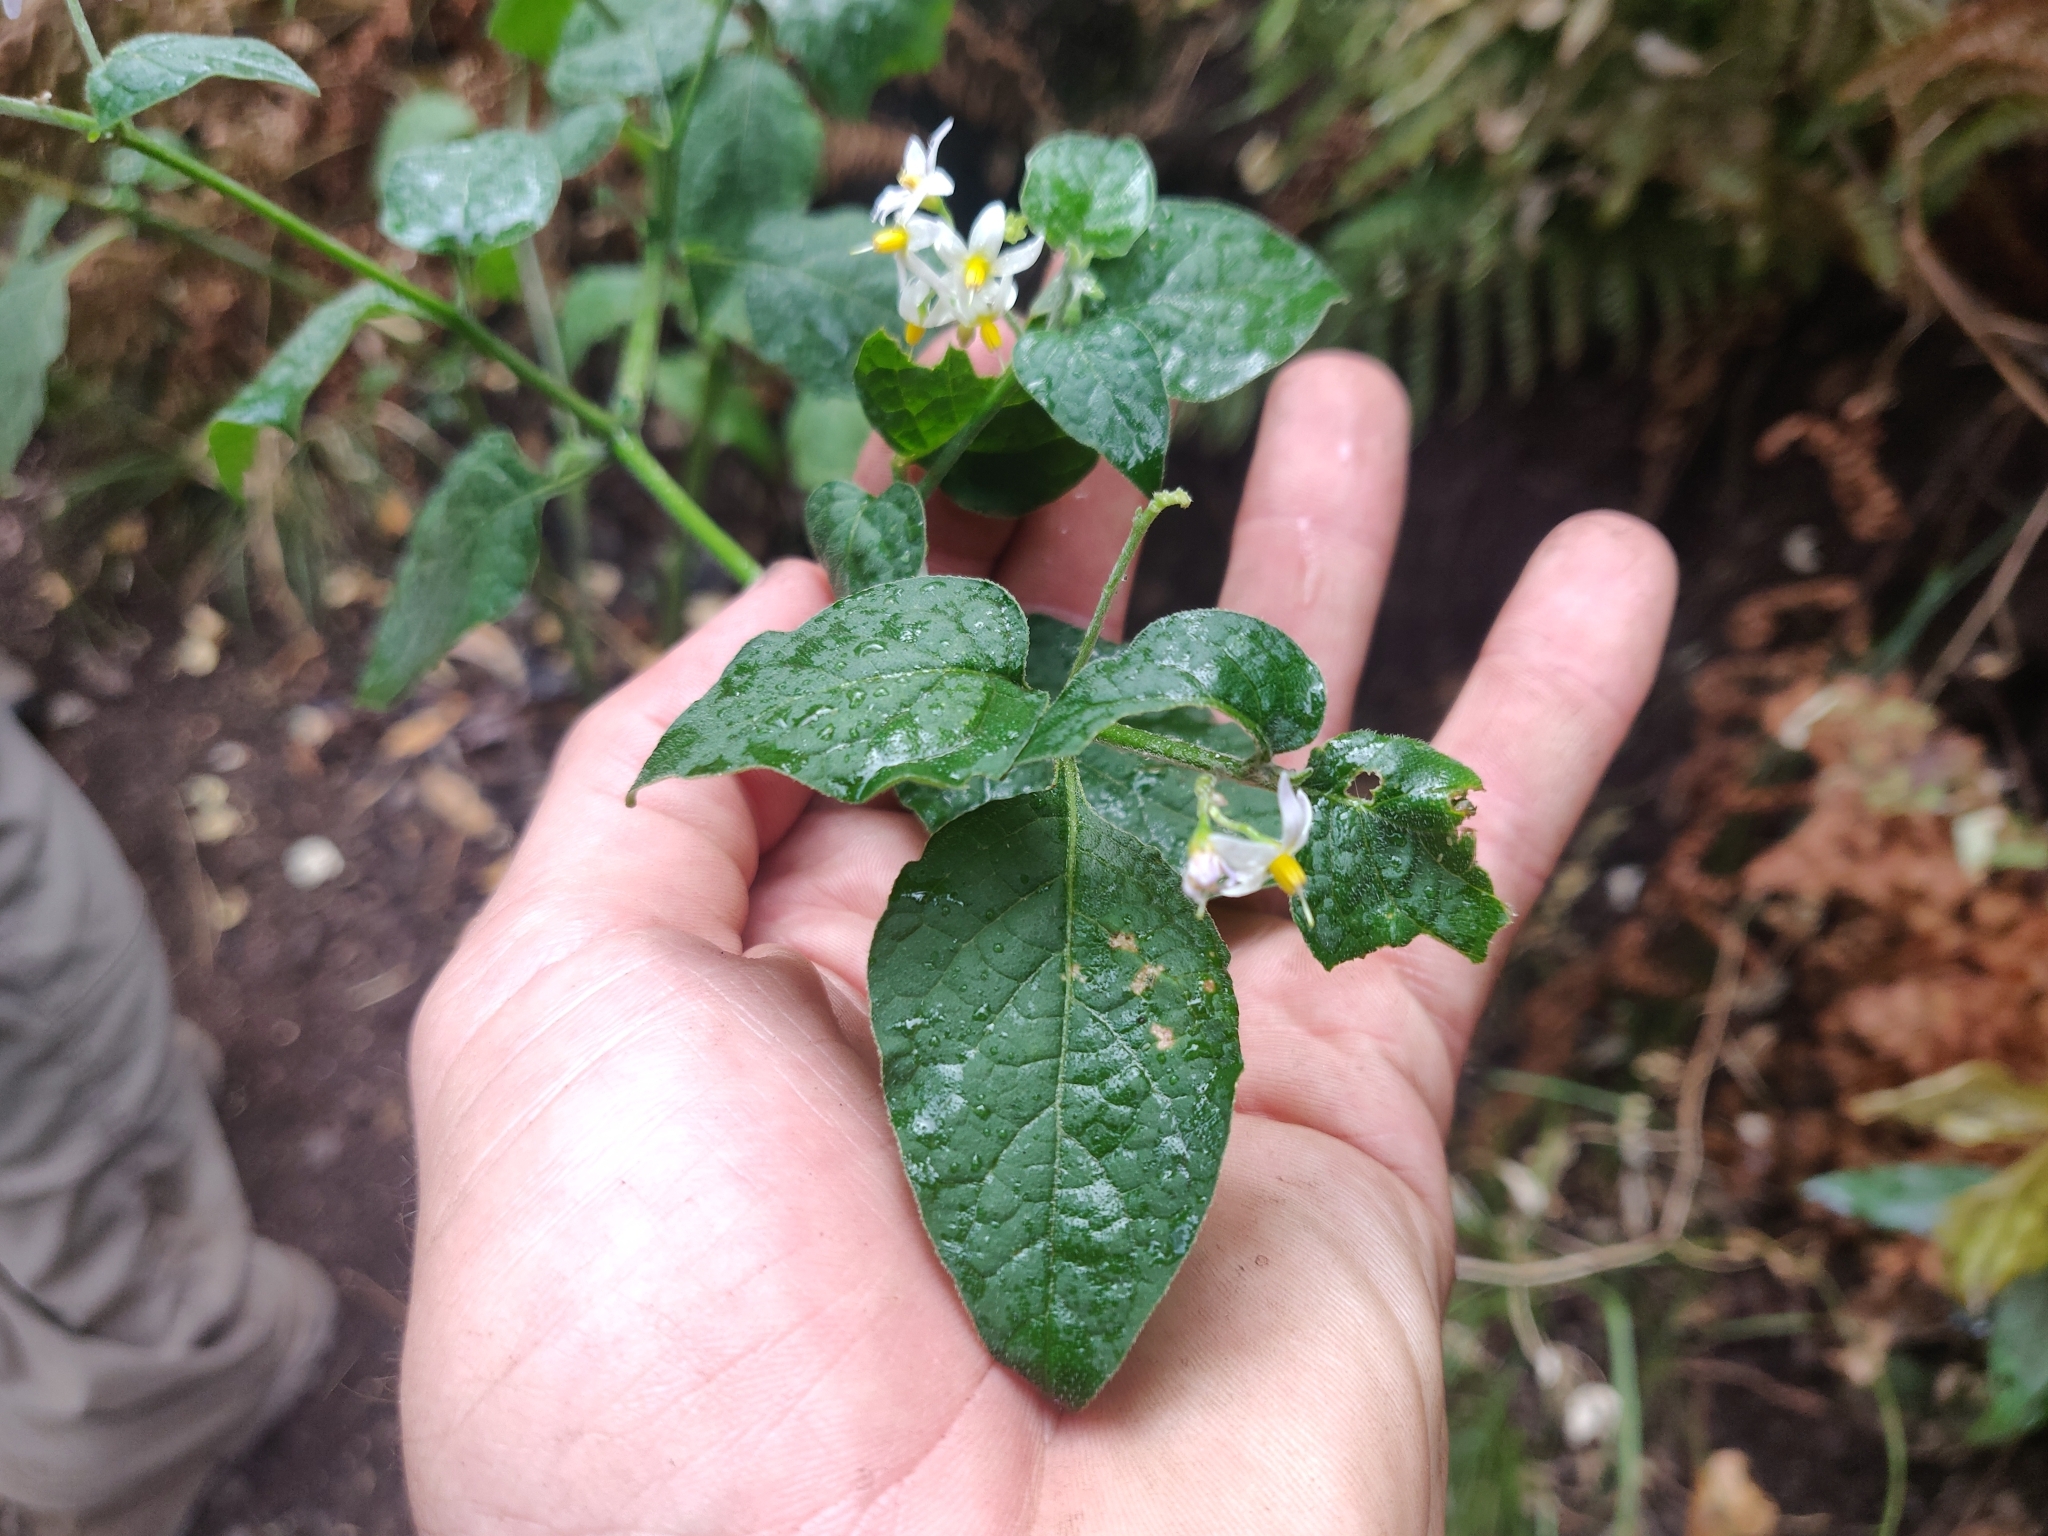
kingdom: Plantae
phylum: Tracheophyta
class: Magnoliopsida
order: Solanales
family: Solanaceae
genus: Solanum
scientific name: Solanum douglasii
